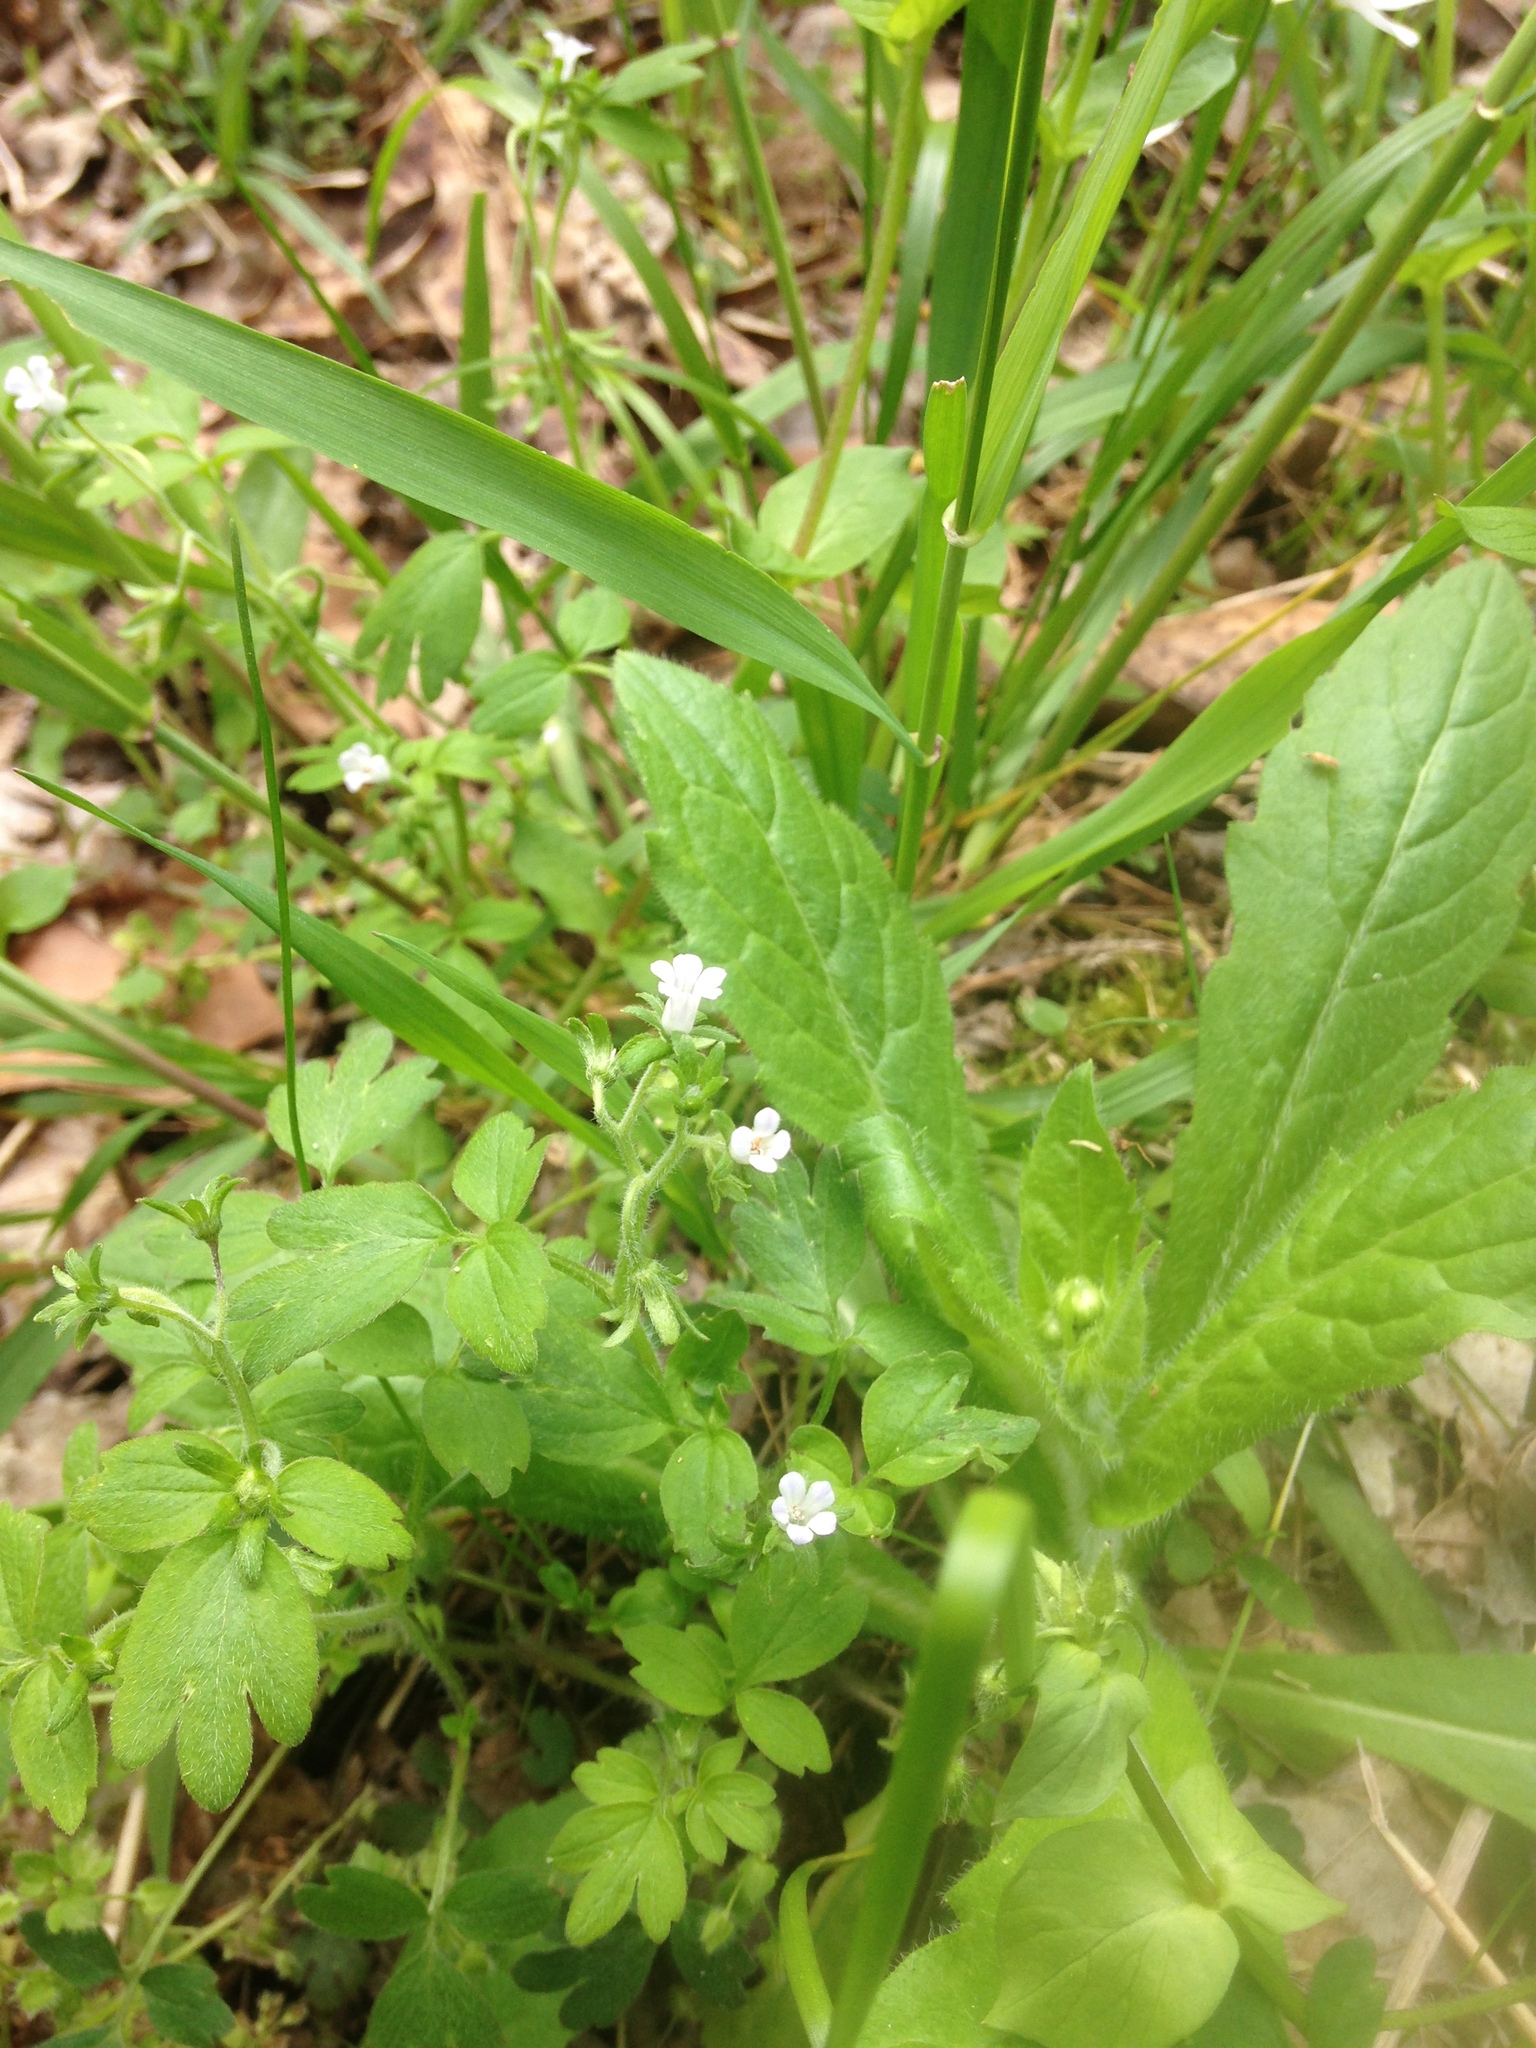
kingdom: Plantae
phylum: Tracheophyta
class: Magnoliopsida
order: Boraginales
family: Hydrophyllaceae
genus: Phacelia
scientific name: Phacelia ranunculacea
